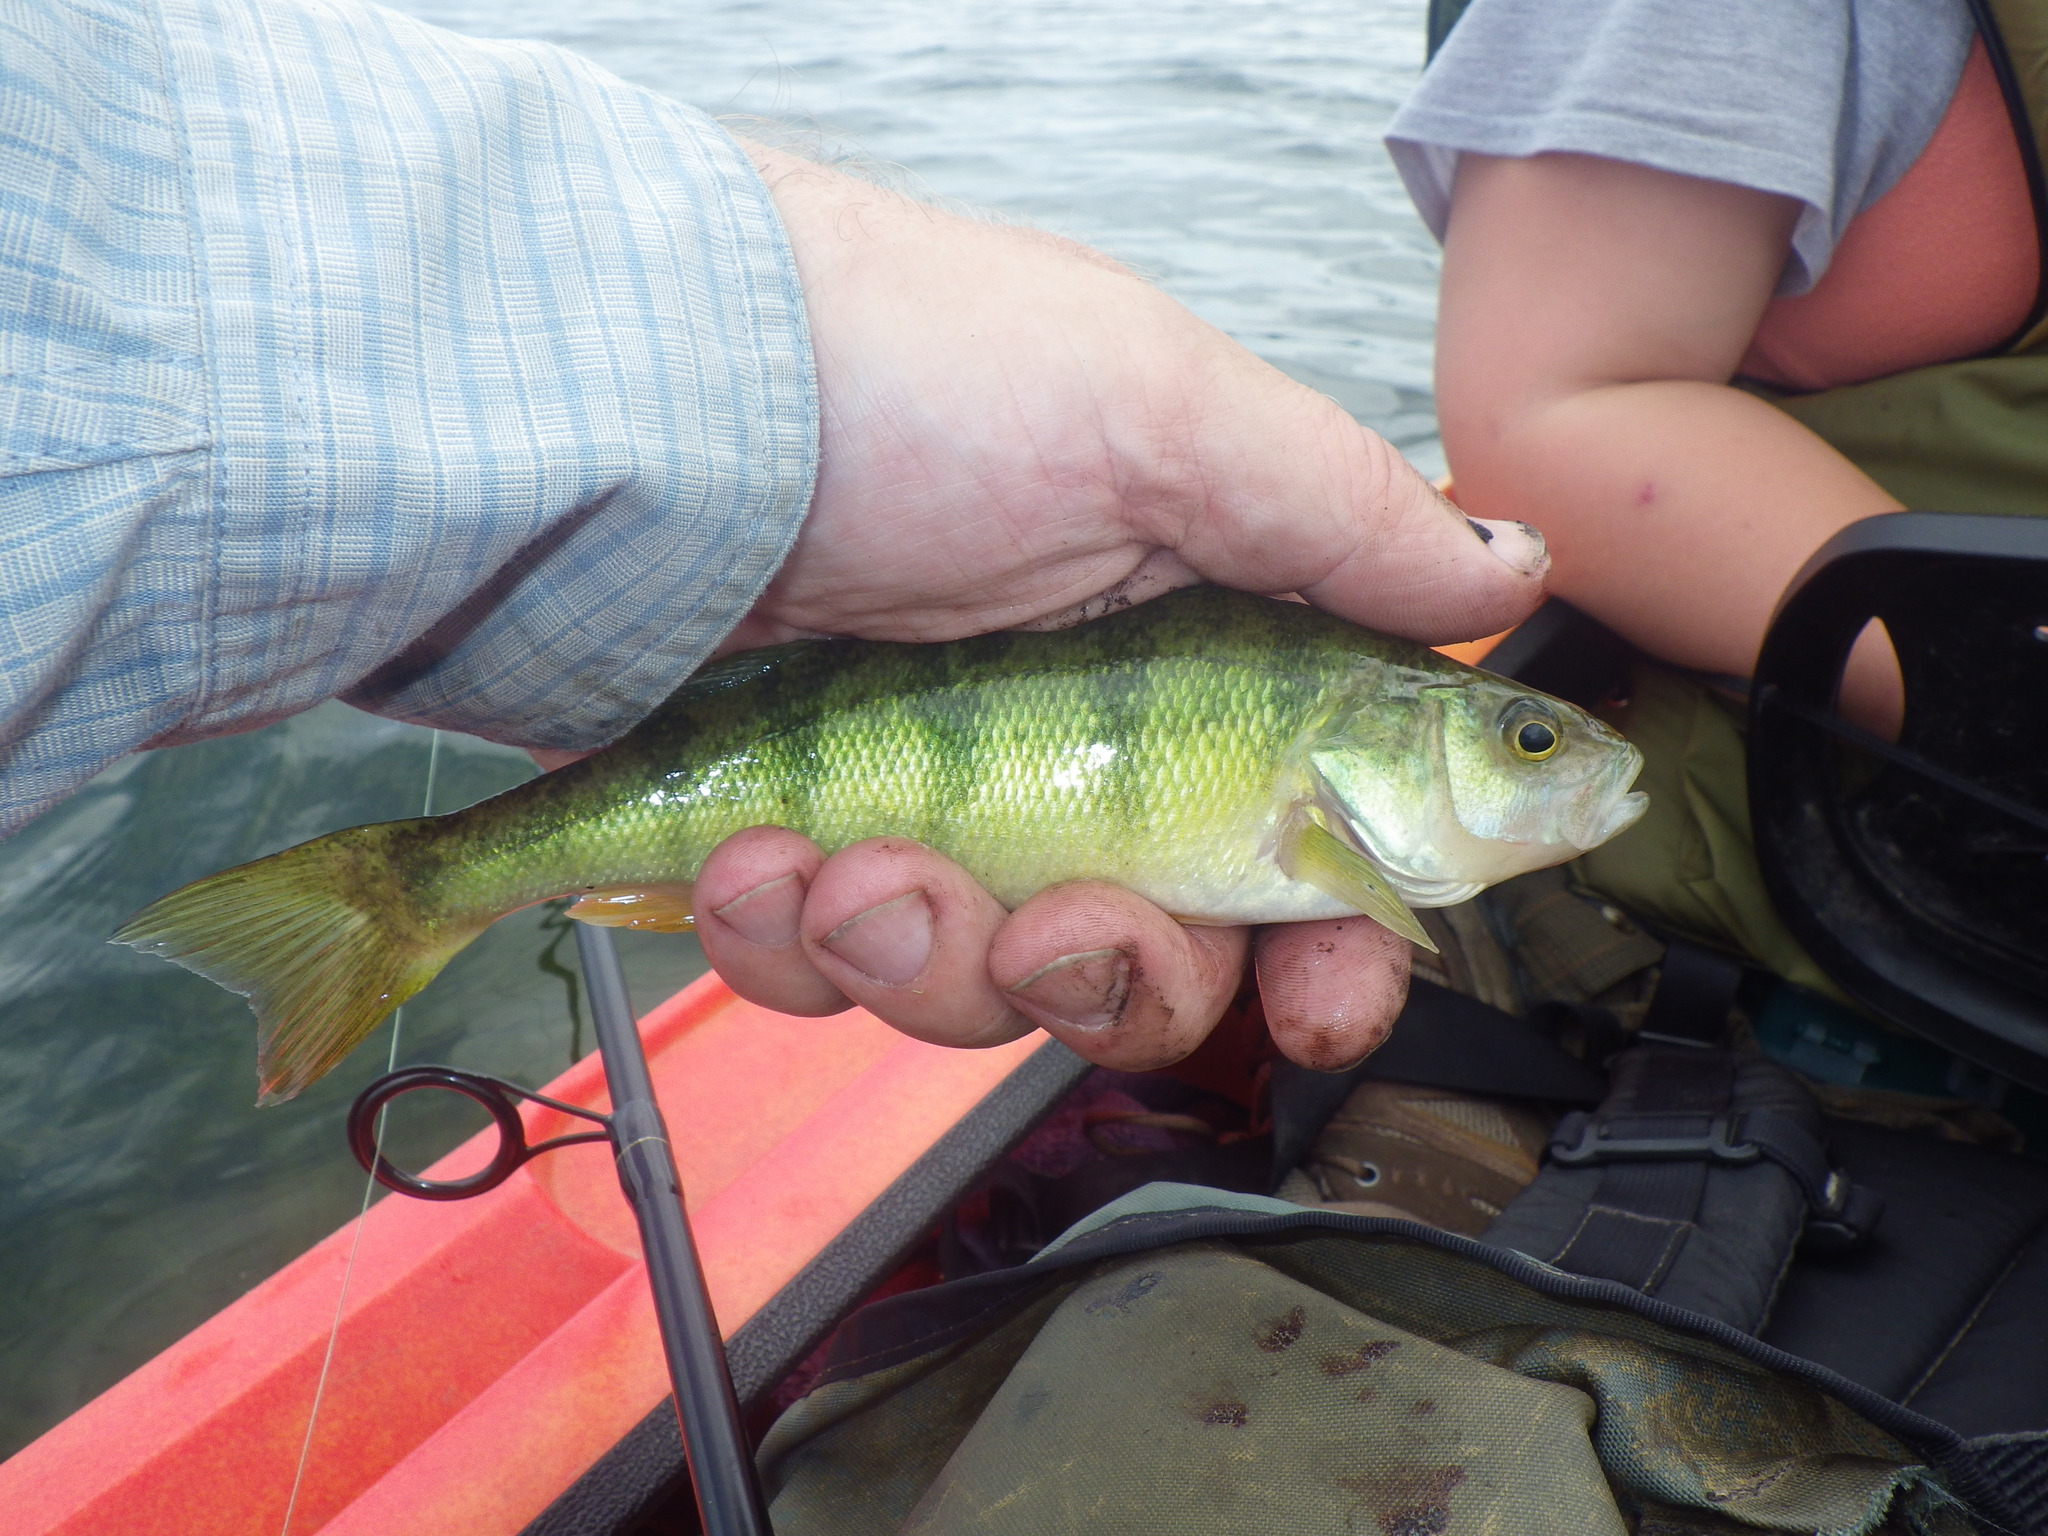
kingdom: Animalia
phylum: Chordata
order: Perciformes
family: Percidae
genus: Perca
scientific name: Perca flavescens
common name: Yellow perch
